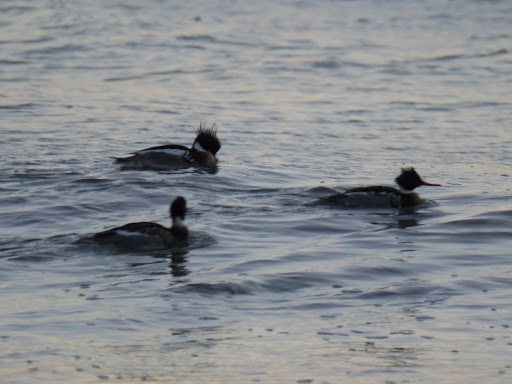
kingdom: Animalia
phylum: Chordata
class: Aves
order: Anseriformes
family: Anatidae
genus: Mergus
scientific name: Mergus serrator
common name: Red-breasted merganser
